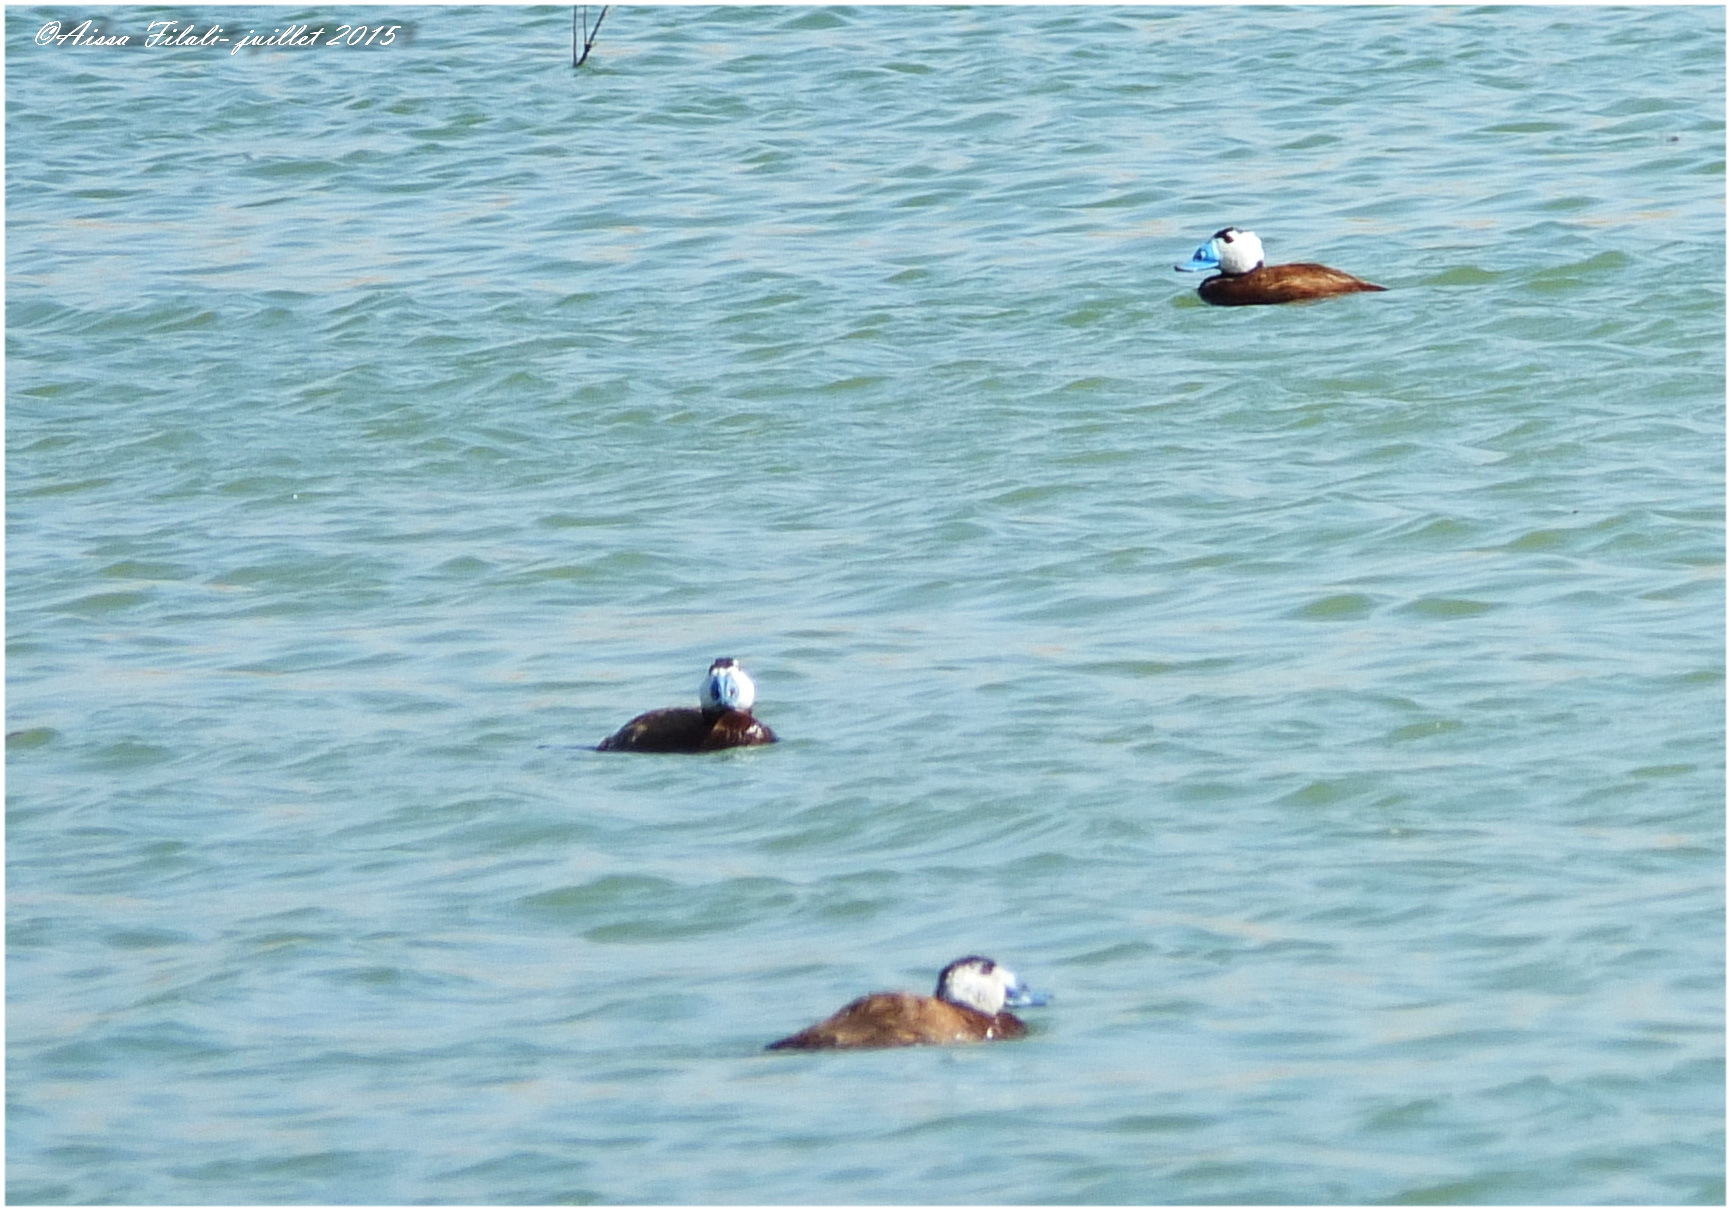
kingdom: Animalia
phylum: Chordata
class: Aves
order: Anseriformes
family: Anatidae
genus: Oxyura
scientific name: Oxyura leucocephala
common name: White-headed duck
